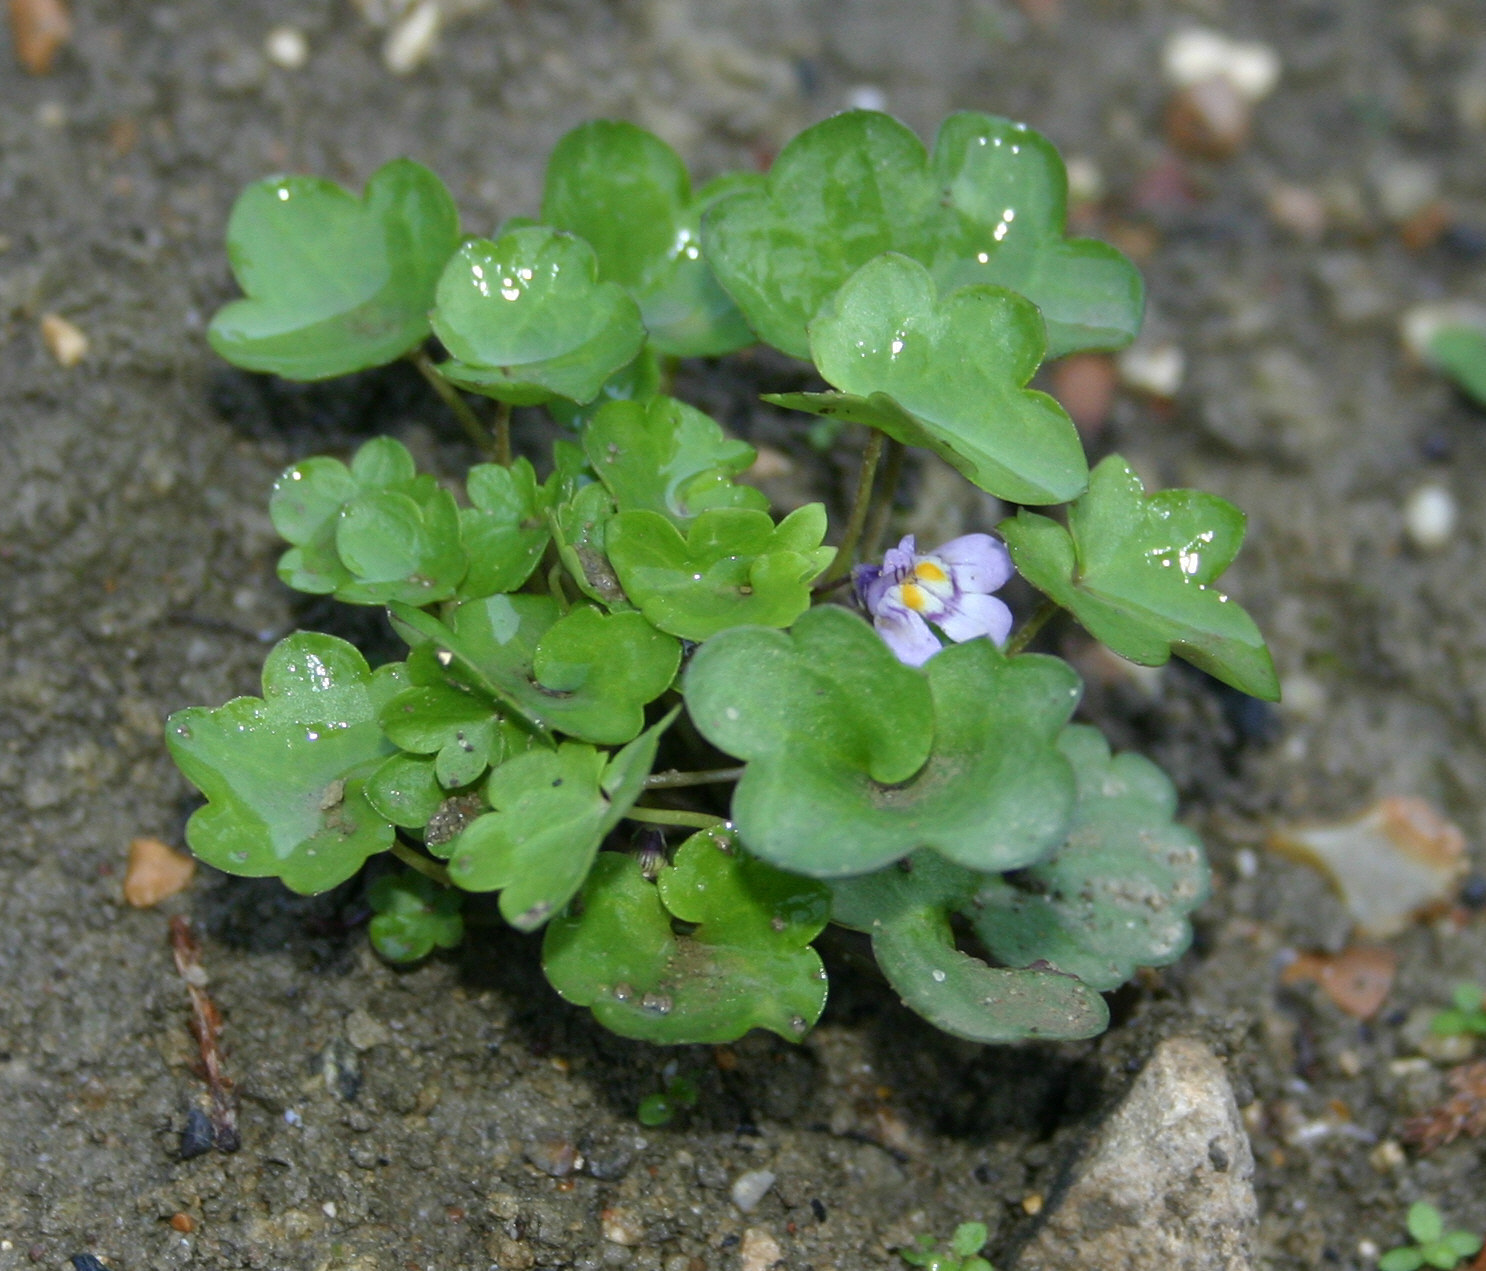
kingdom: Plantae
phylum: Tracheophyta
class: Magnoliopsida
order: Lamiales
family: Plantaginaceae
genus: Cymbalaria
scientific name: Cymbalaria muralis
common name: Ivy-leaved toadflax
